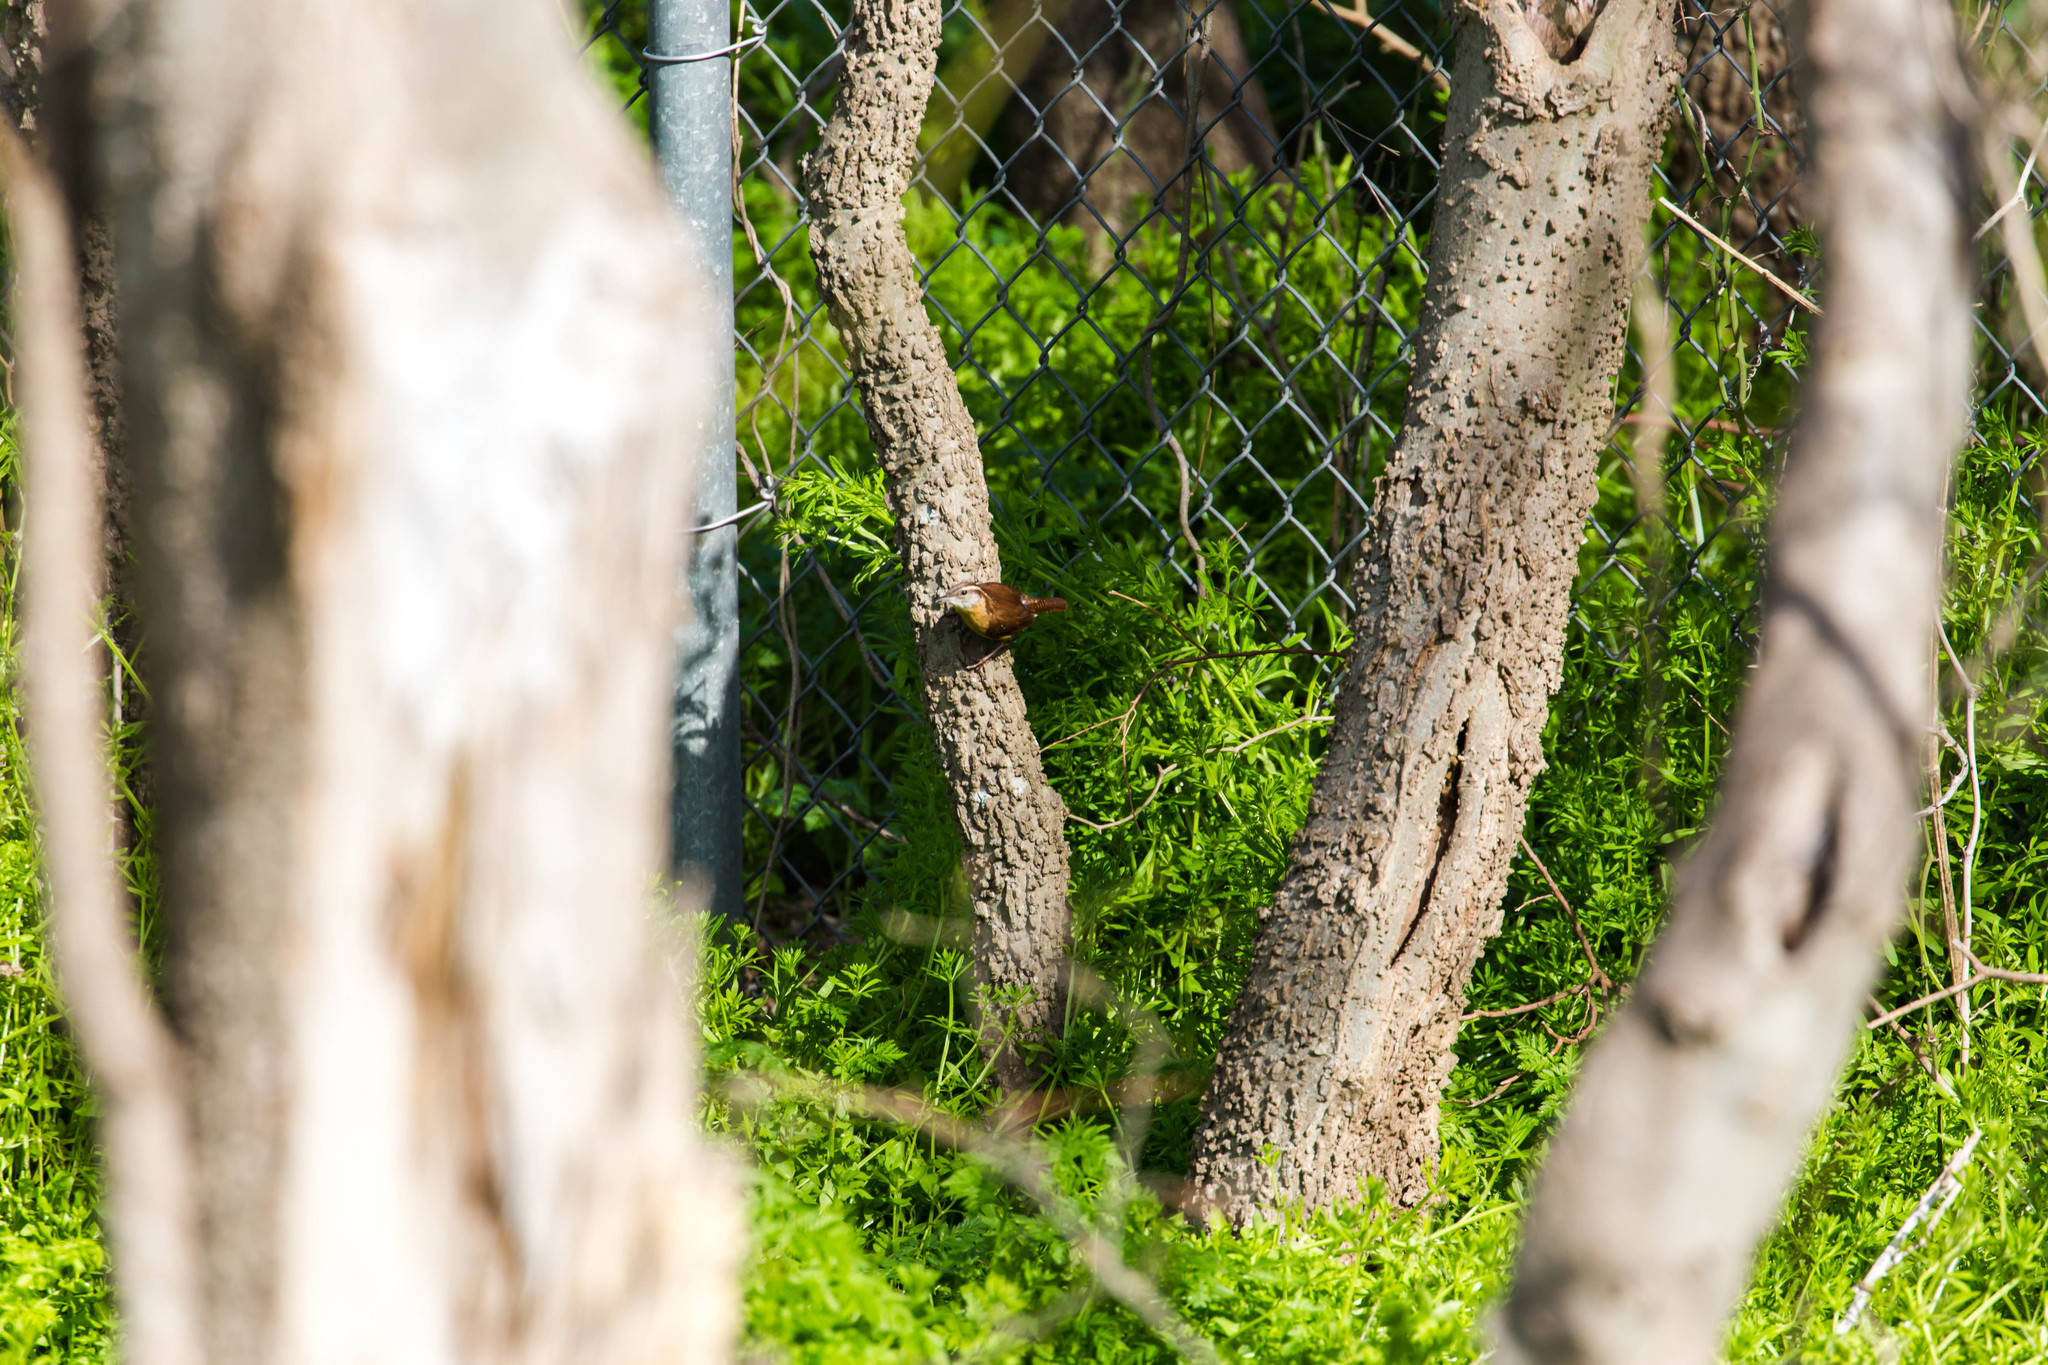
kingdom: Animalia
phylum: Chordata
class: Aves
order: Passeriformes
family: Troglodytidae
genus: Thryothorus
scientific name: Thryothorus ludovicianus
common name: Carolina wren
